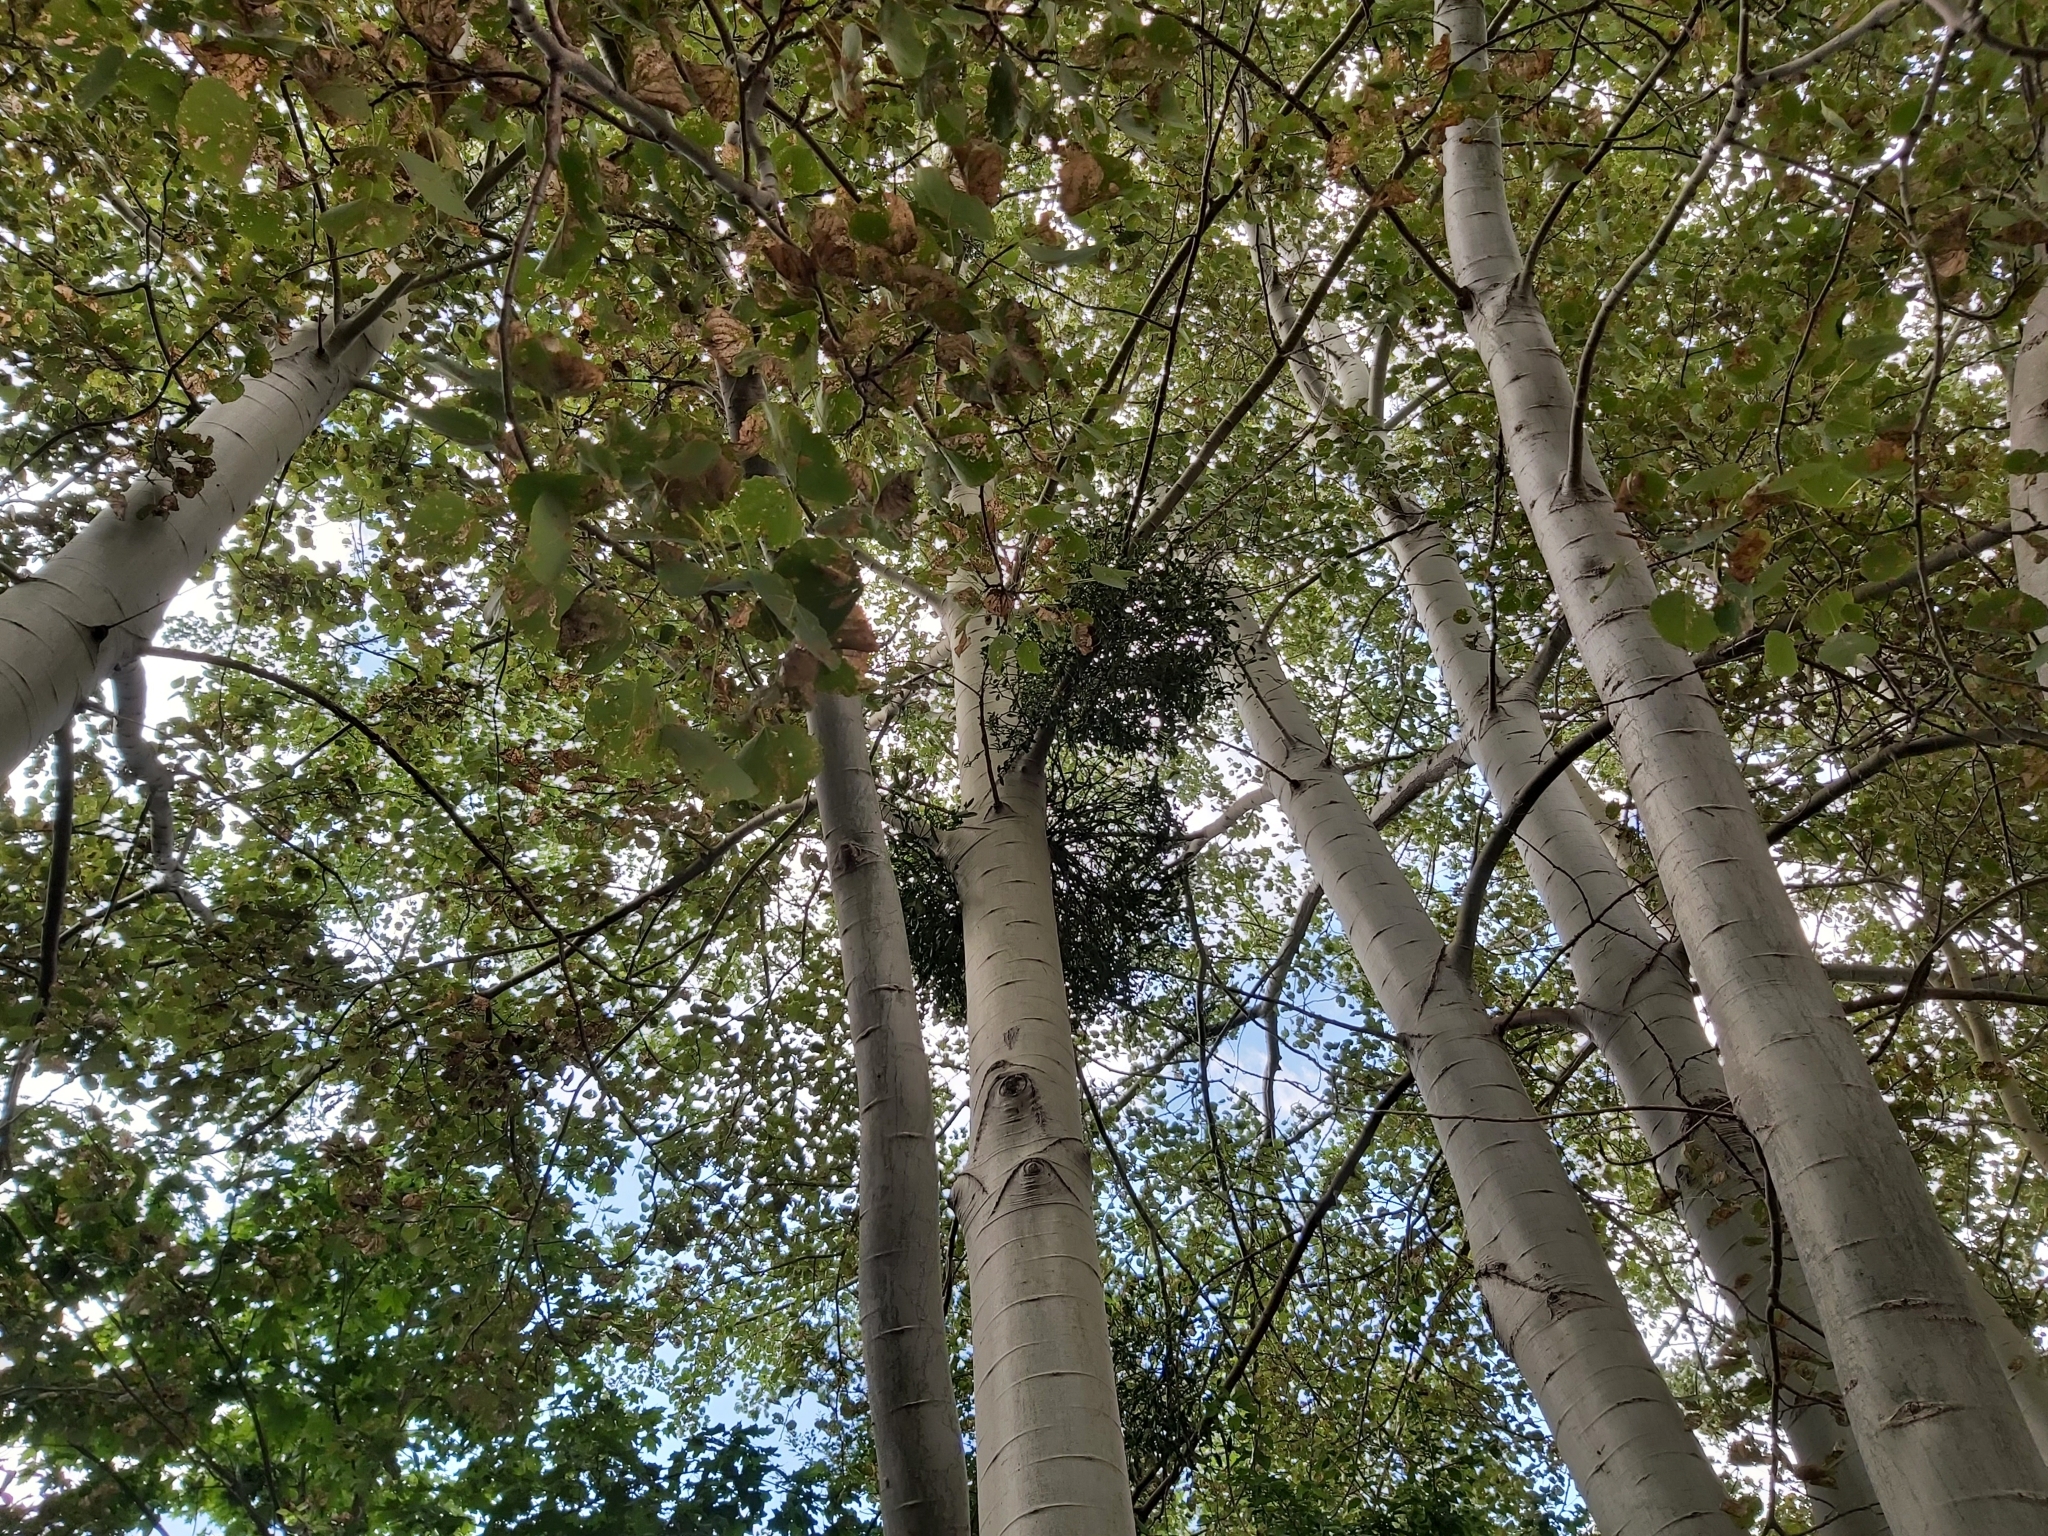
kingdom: Plantae
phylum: Tracheophyta
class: Magnoliopsida
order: Santalales
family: Viscaceae
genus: Viscum
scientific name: Viscum album
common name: Mistletoe
